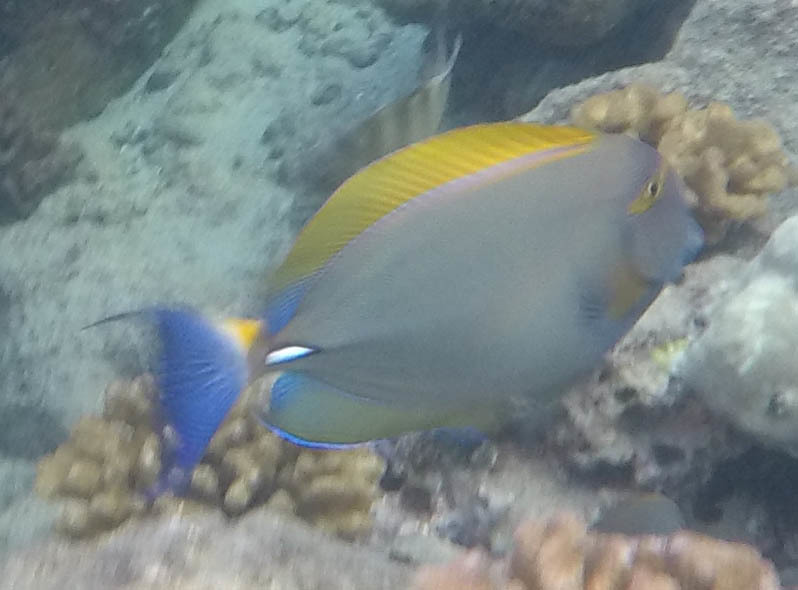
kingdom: Animalia
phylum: Chordata
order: Perciformes
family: Acanthuridae
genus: Acanthurus
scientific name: Acanthurus dussumieri
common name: Dussumier's surgeonfish
